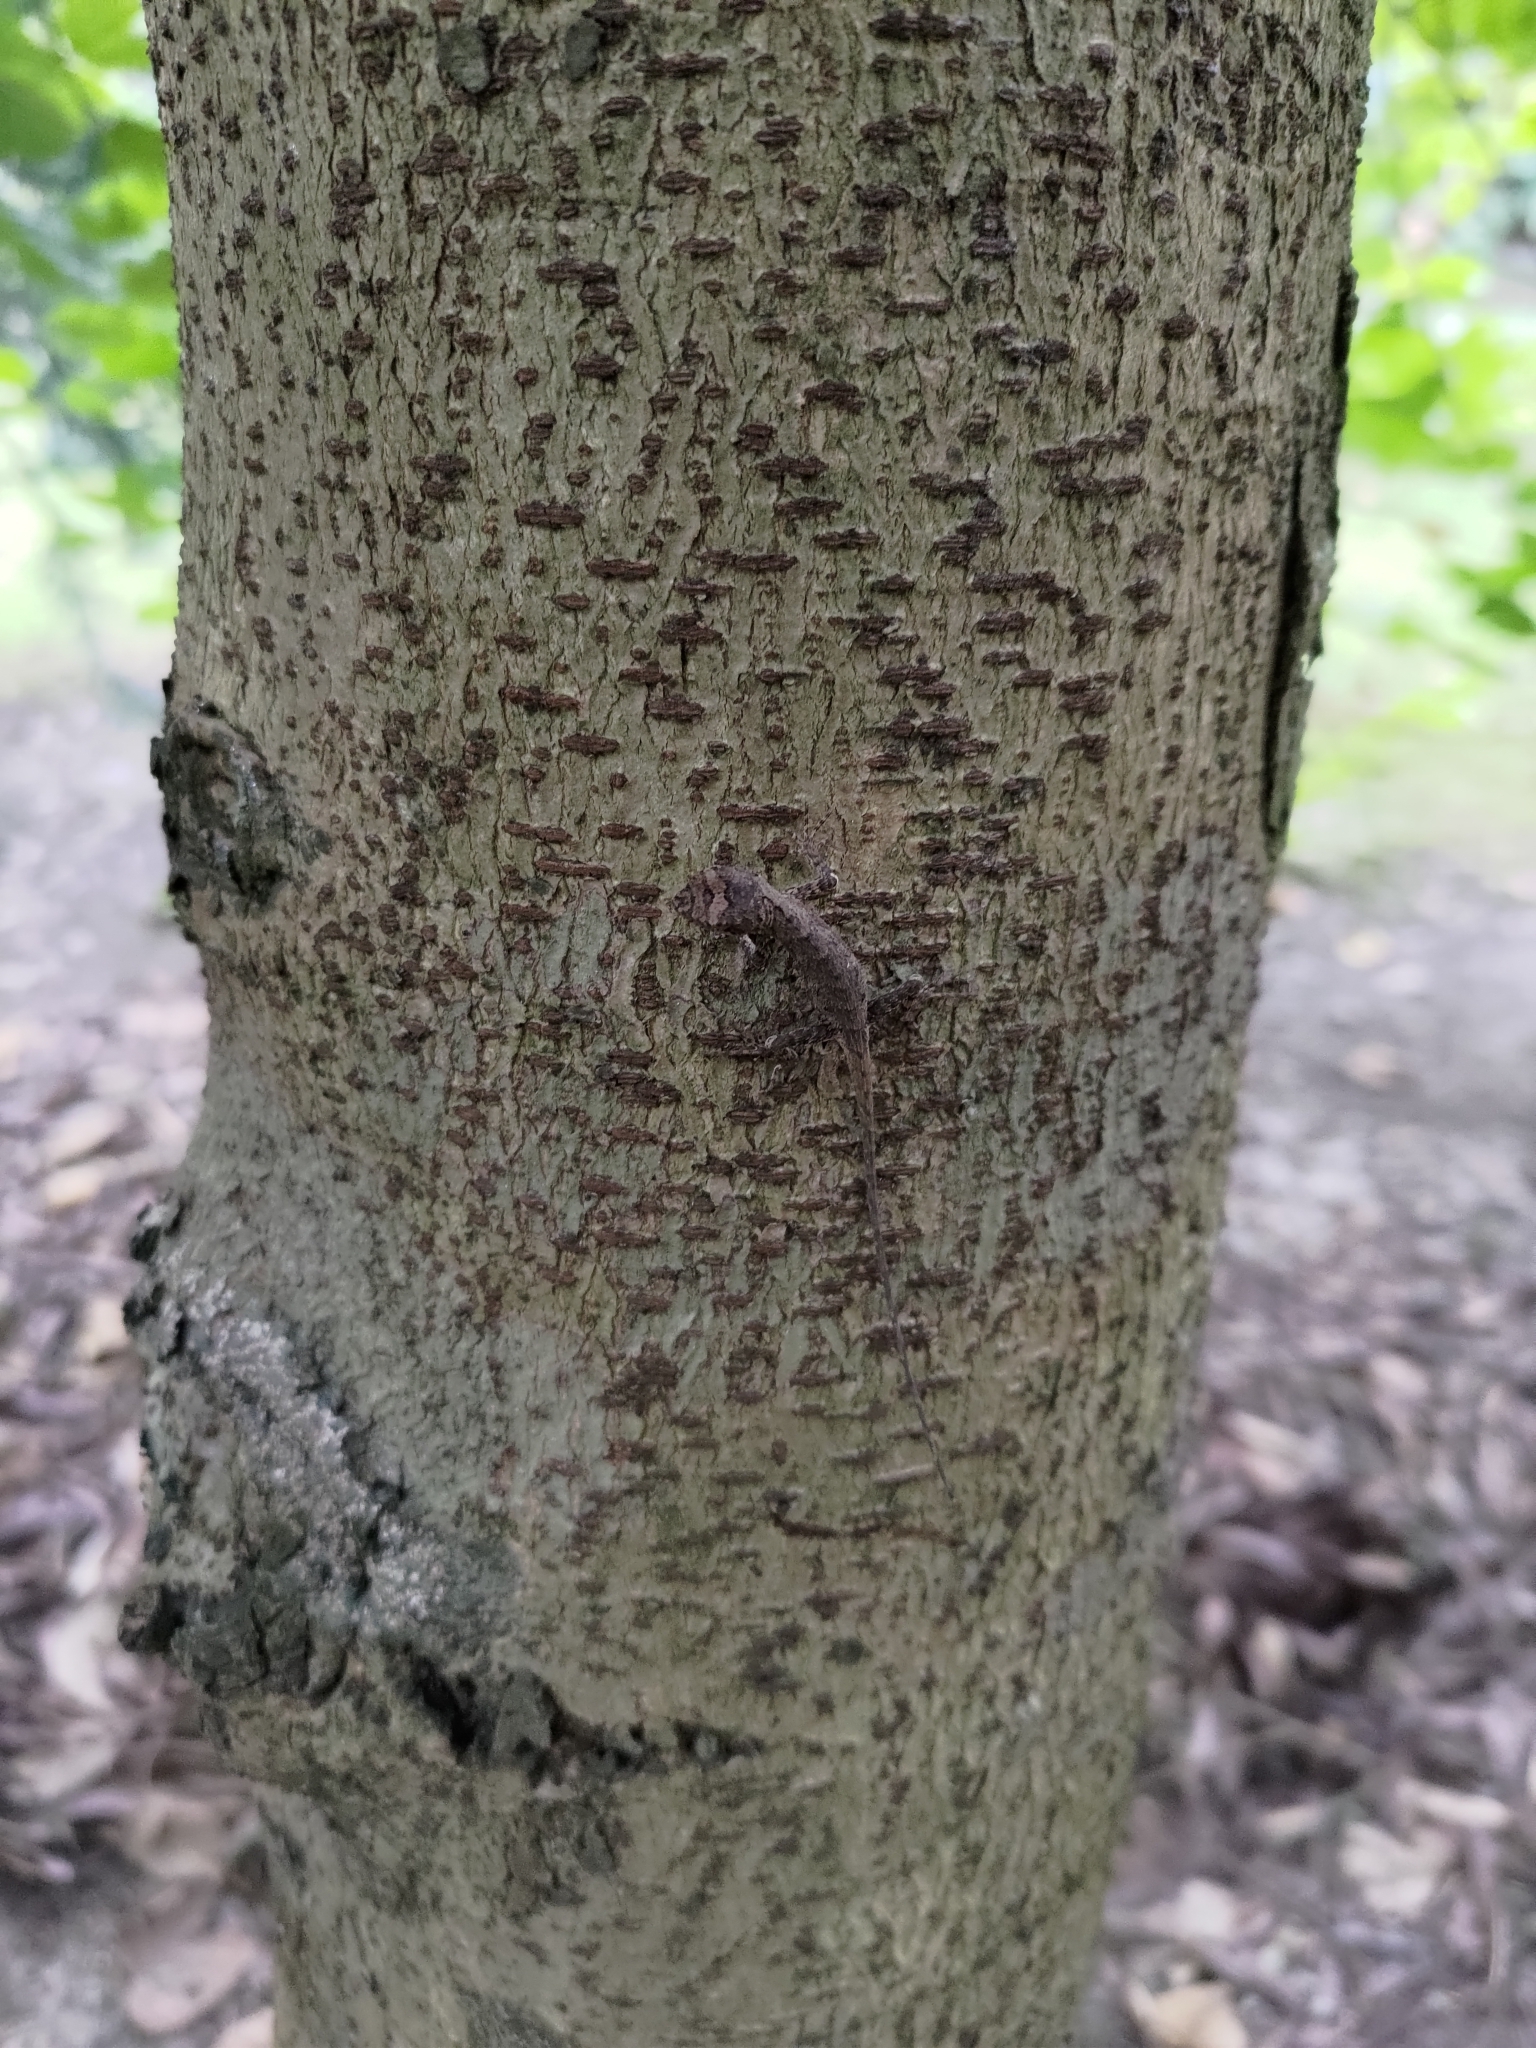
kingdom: Animalia
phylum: Chordata
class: Squamata
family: Agamidae
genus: Diploderma
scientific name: Diploderma swinhonis
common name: Taiwan japalure
